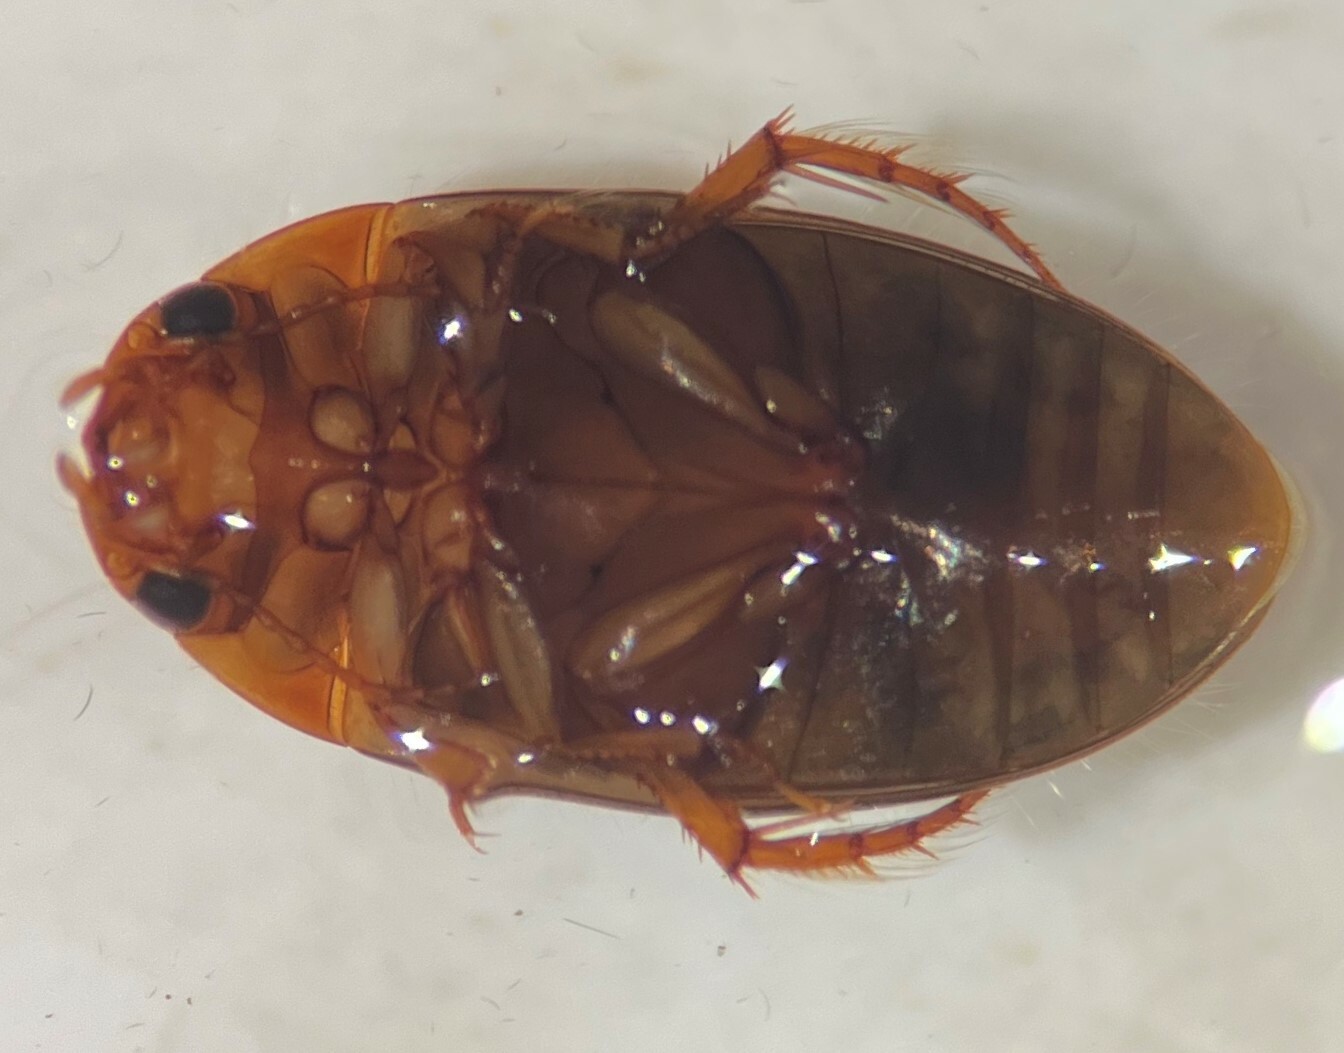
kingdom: Animalia
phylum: Arthropoda
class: Insecta
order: Coleoptera
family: Dytiscidae
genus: Copelatus
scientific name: Copelatus glyphicus
